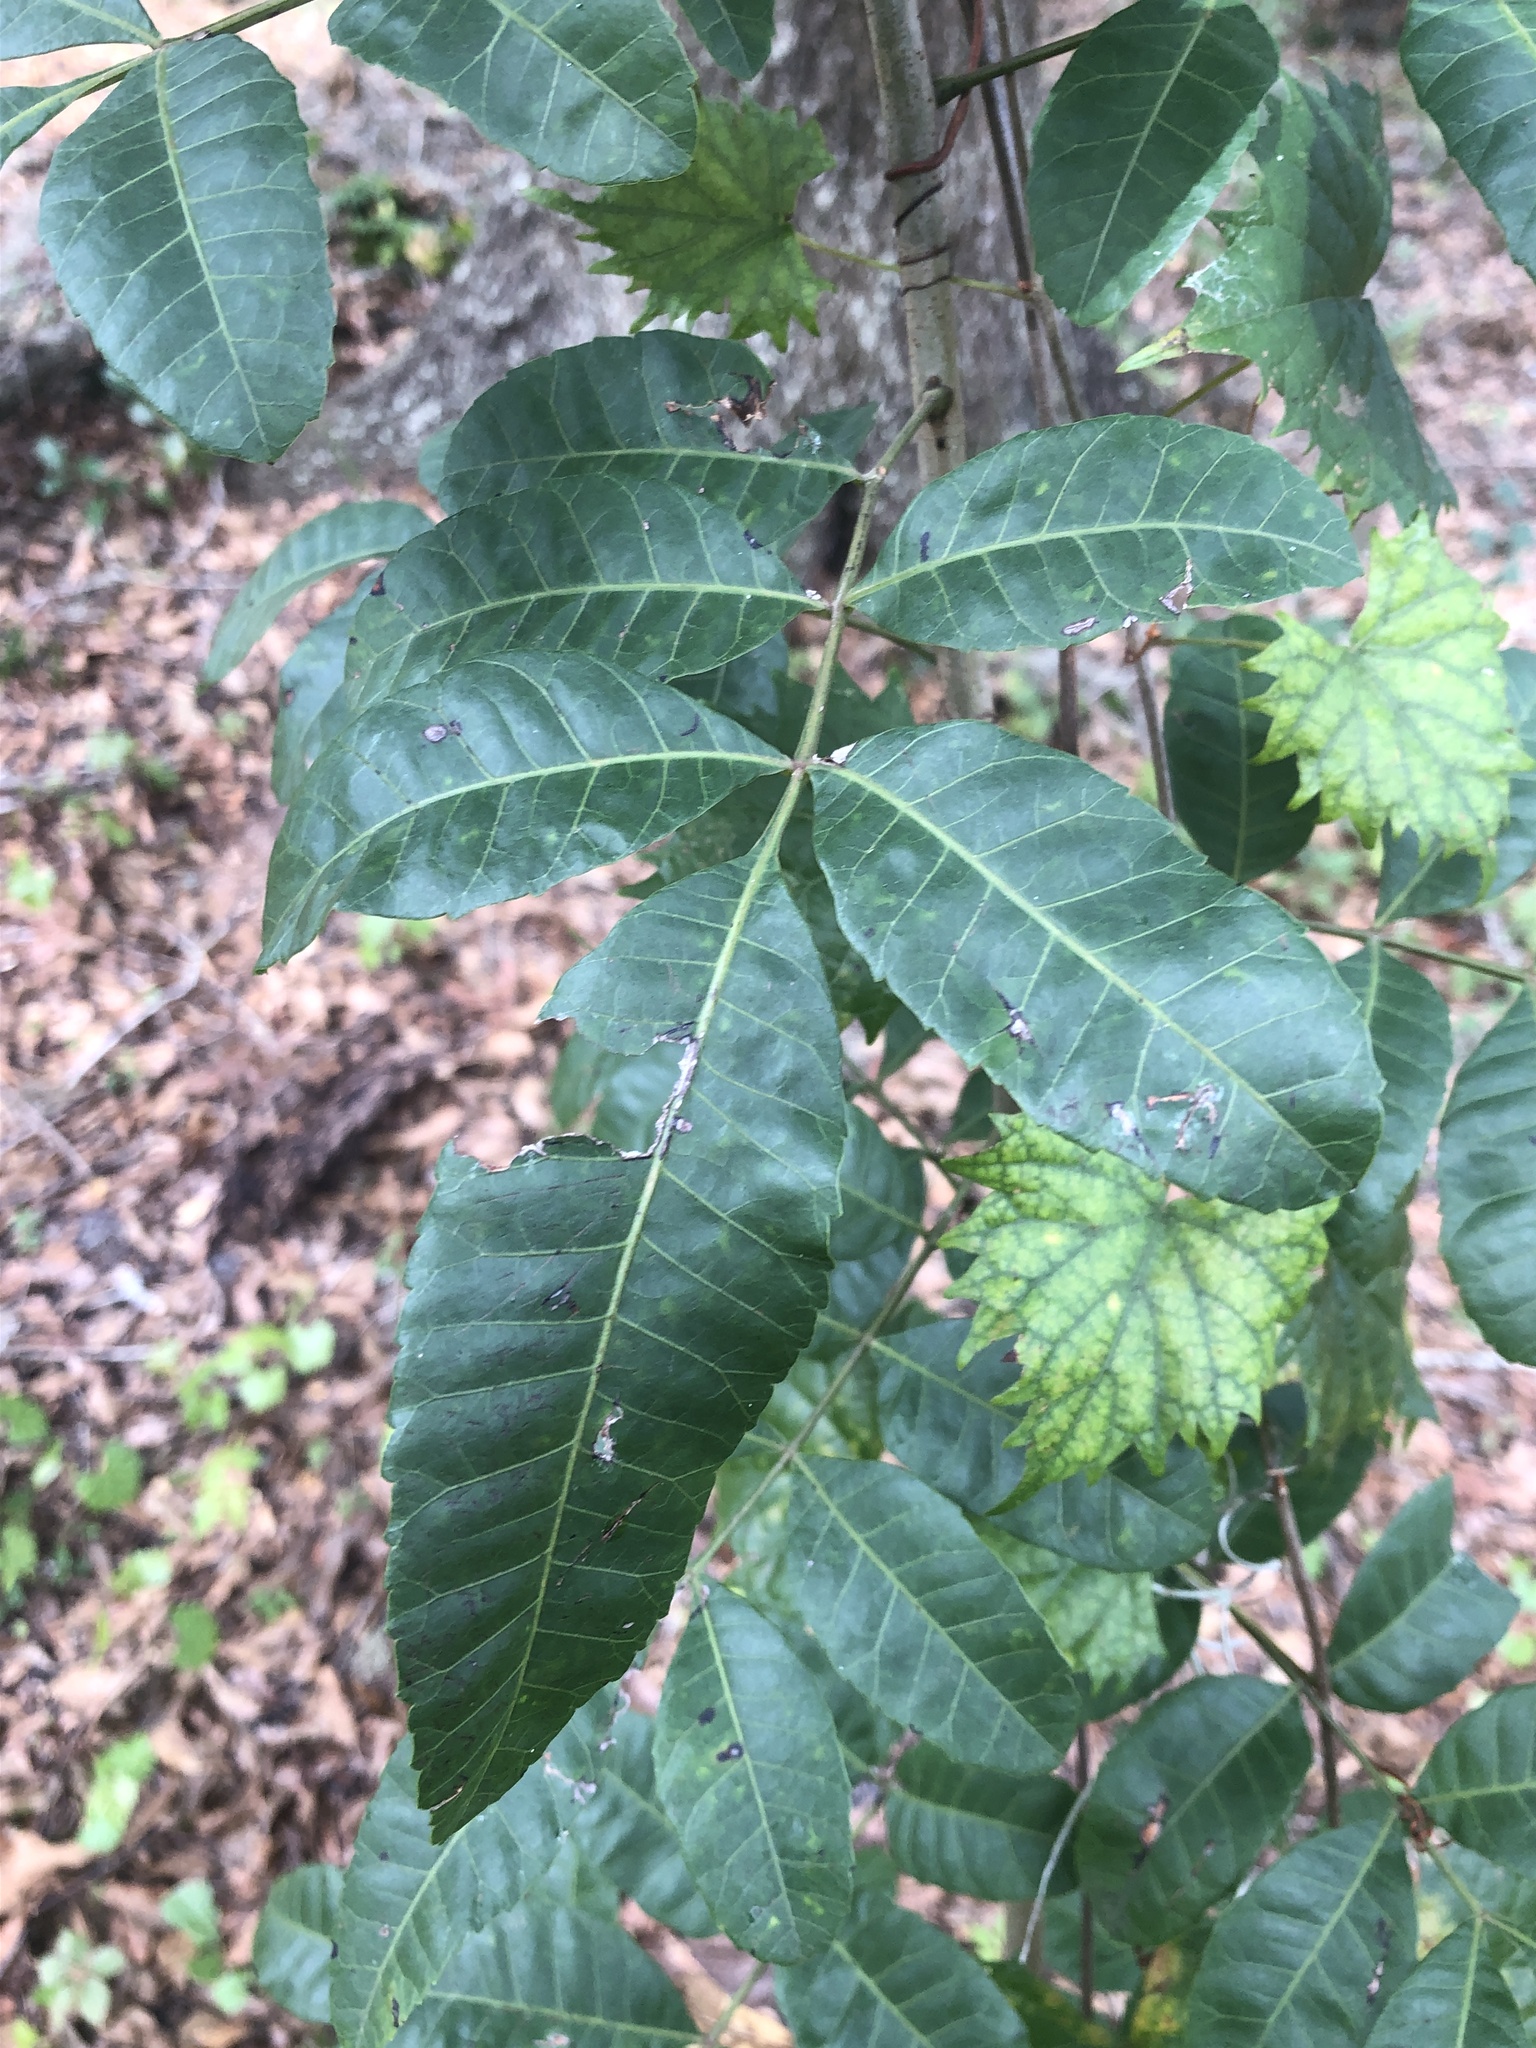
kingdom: Plantae
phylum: Tracheophyta
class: Magnoliopsida
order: Sapindales
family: Anacardiaceae
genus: Schinus
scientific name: Schinus terebinthifolia
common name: Brazilian peppertree
